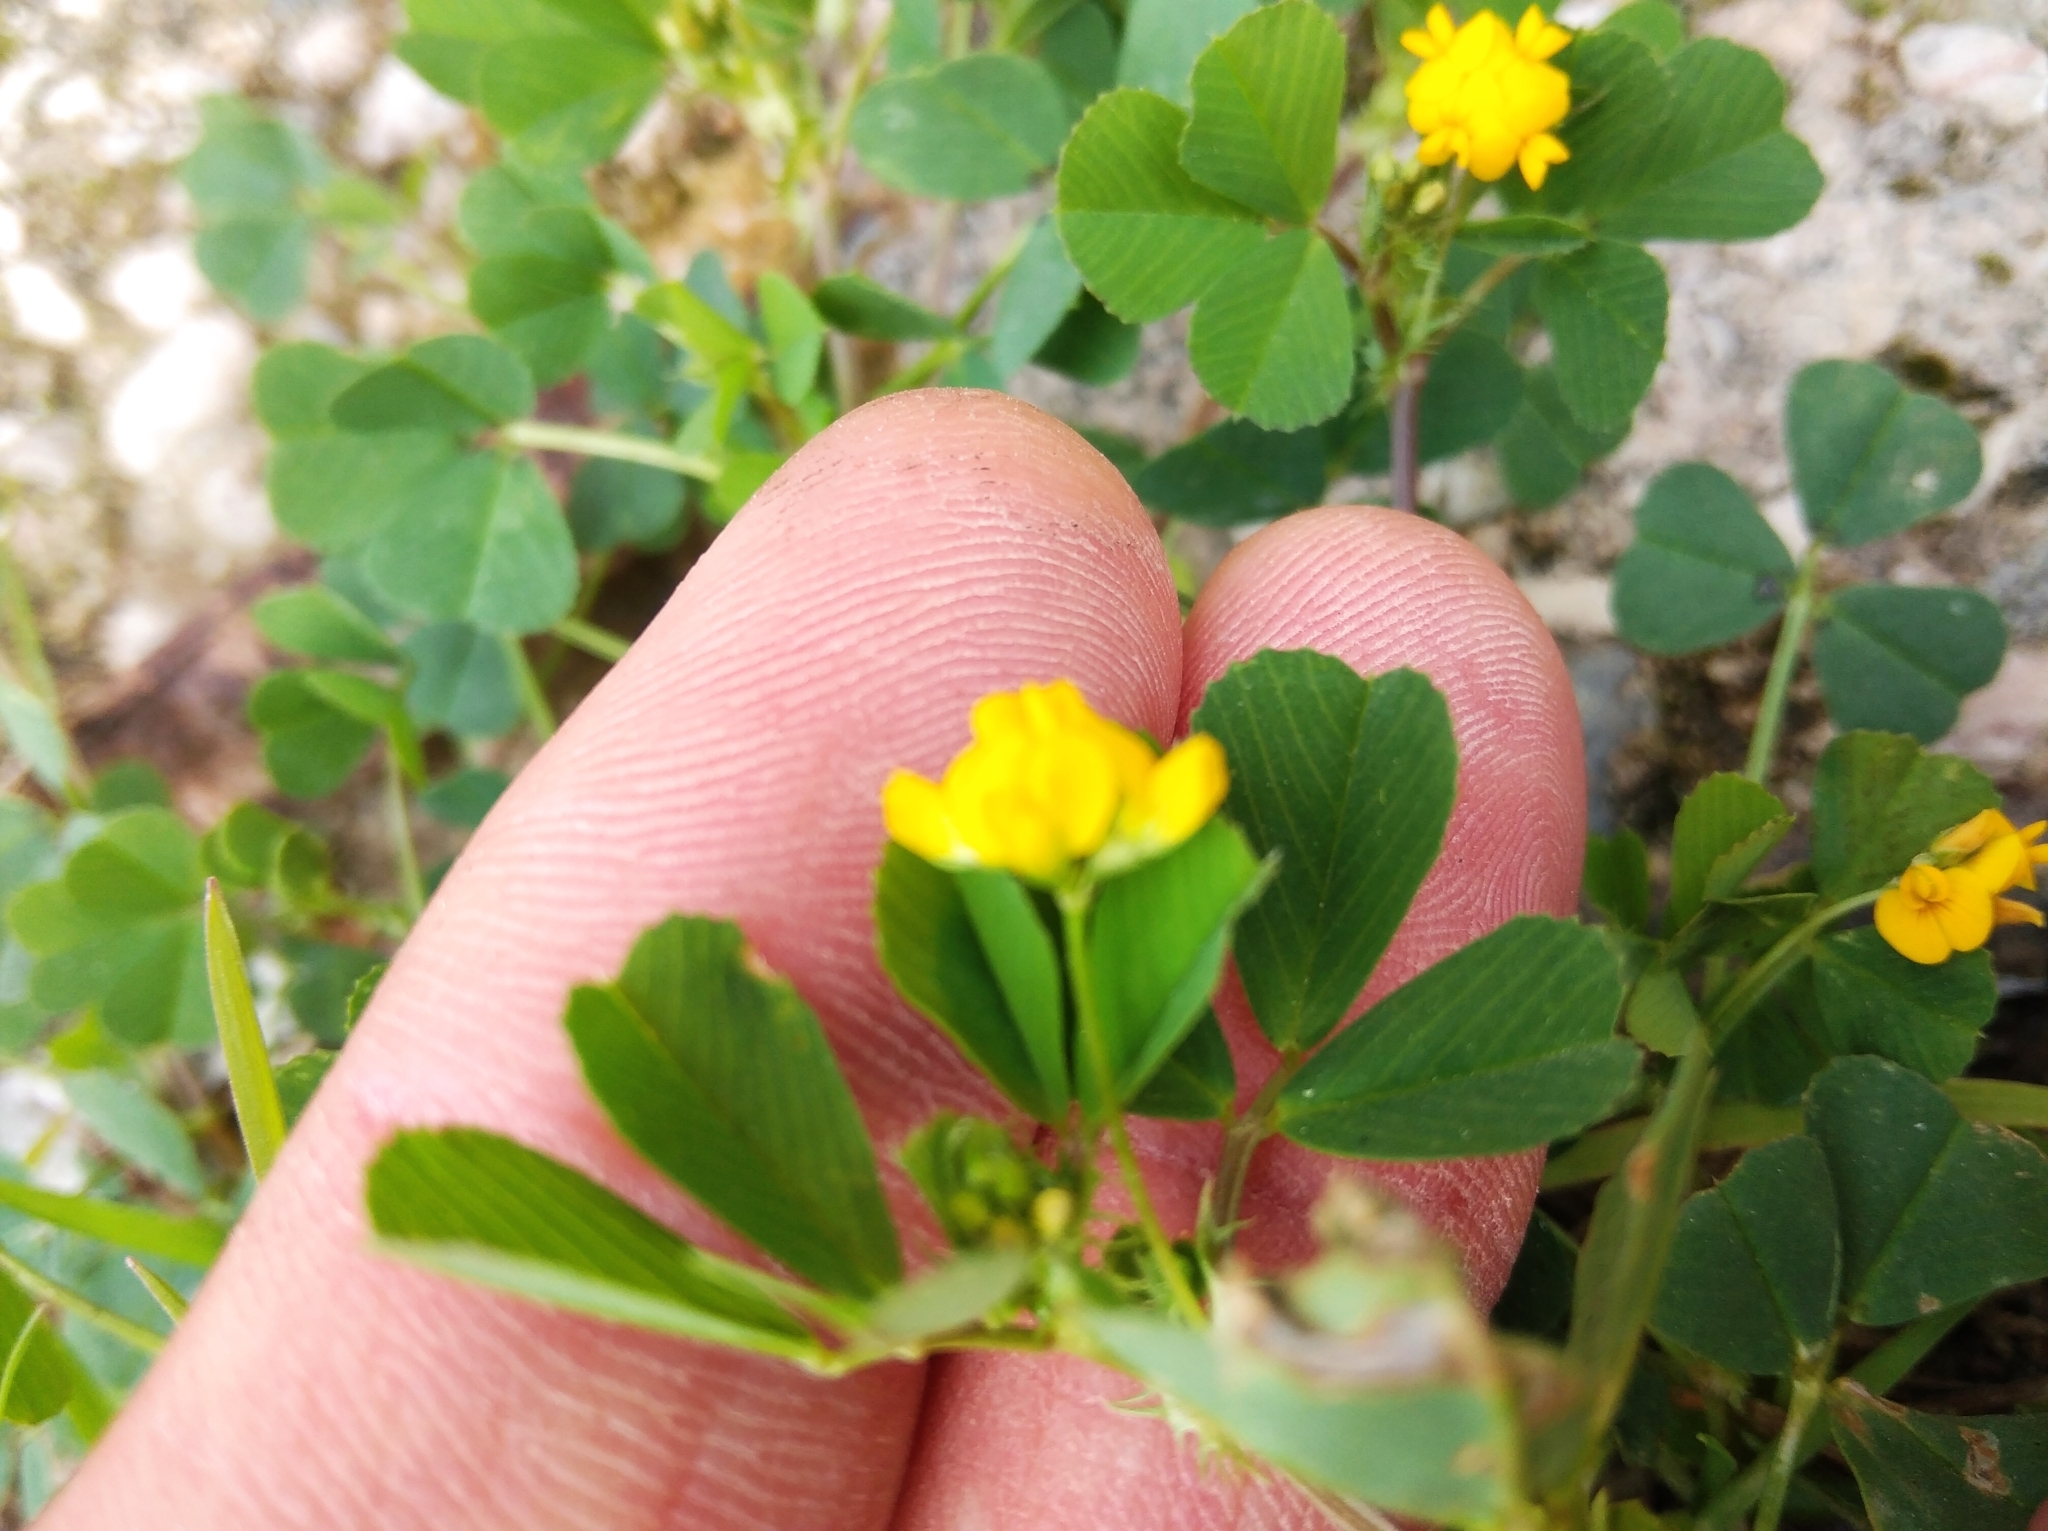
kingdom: Plantae
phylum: Tracheophyta
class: Magnoliopsida
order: Fabales
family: Fabaceae
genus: Medicago
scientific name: Medicago polymorpha
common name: Burclover
